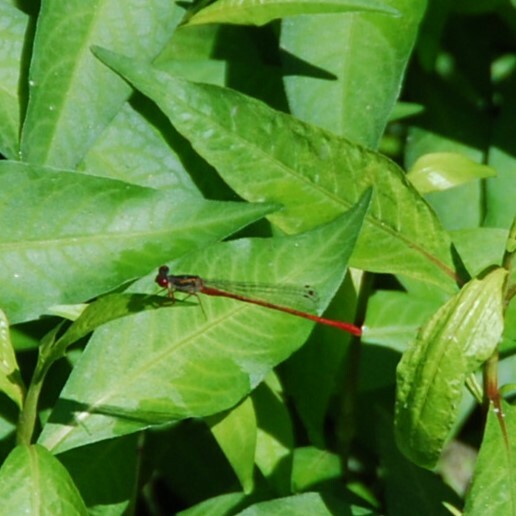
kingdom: Animalia
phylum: Arthropoda
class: Insecta
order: Odonata
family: Coenagrionidae
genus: Ceriagrion
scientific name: Ceriagrion tenellum
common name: Small red damselfly
